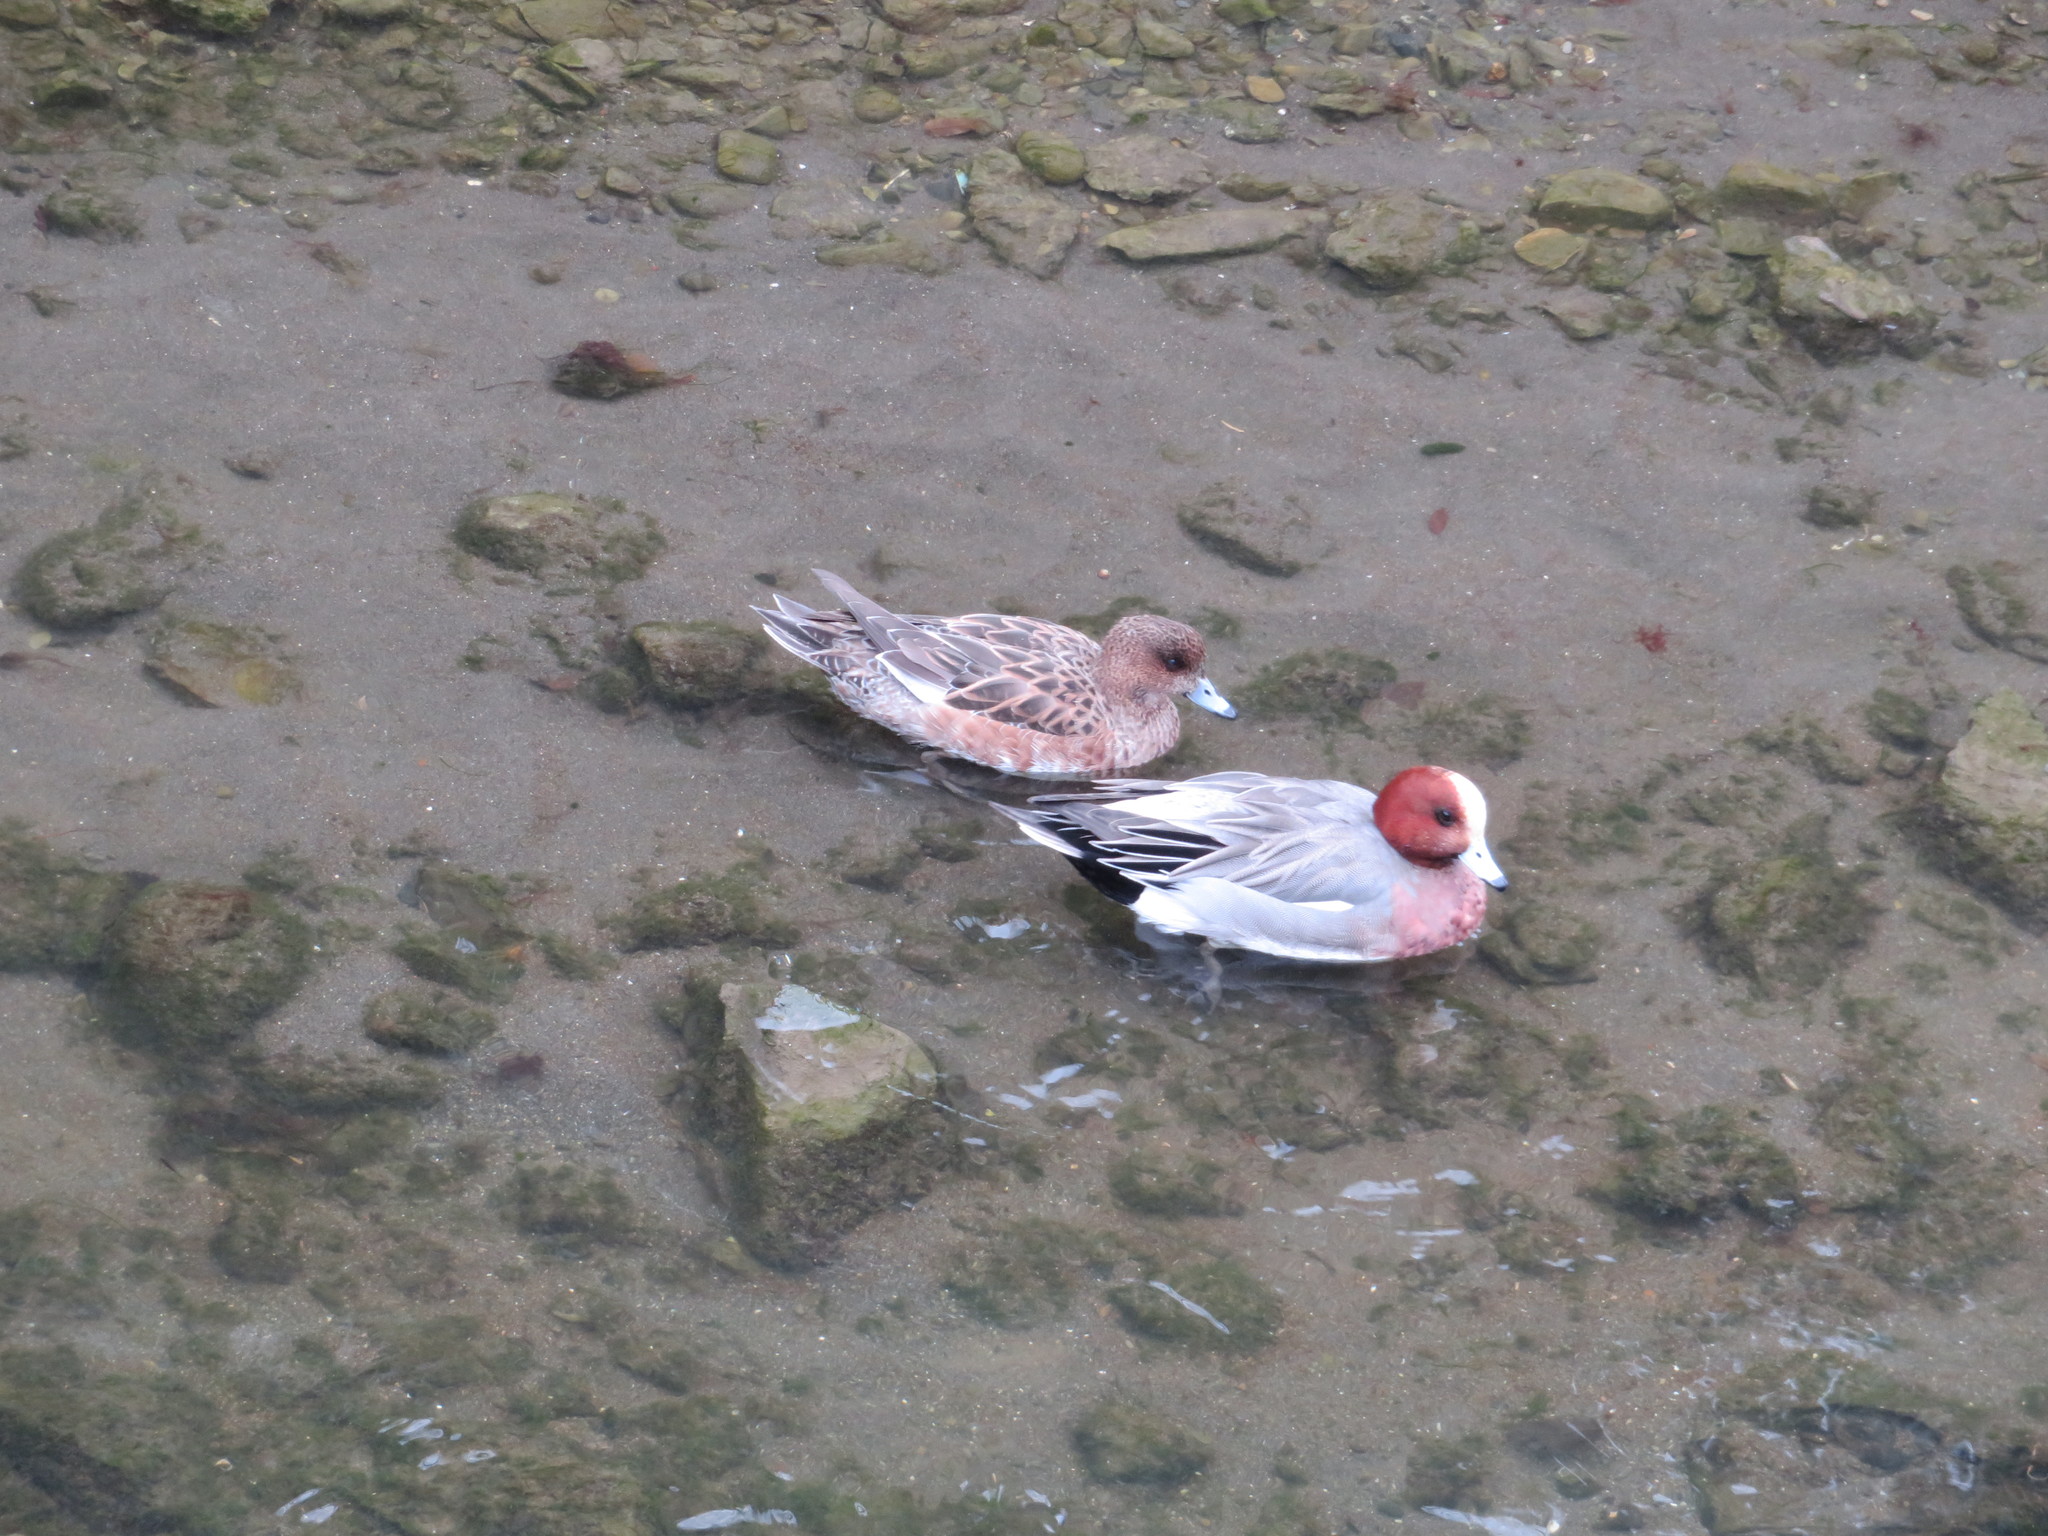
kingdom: Animalia
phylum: Chordata
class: Aves
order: Anseriformes
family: Anatidae
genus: Mareca
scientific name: Mareca penelope
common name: Eurasian wigeon
